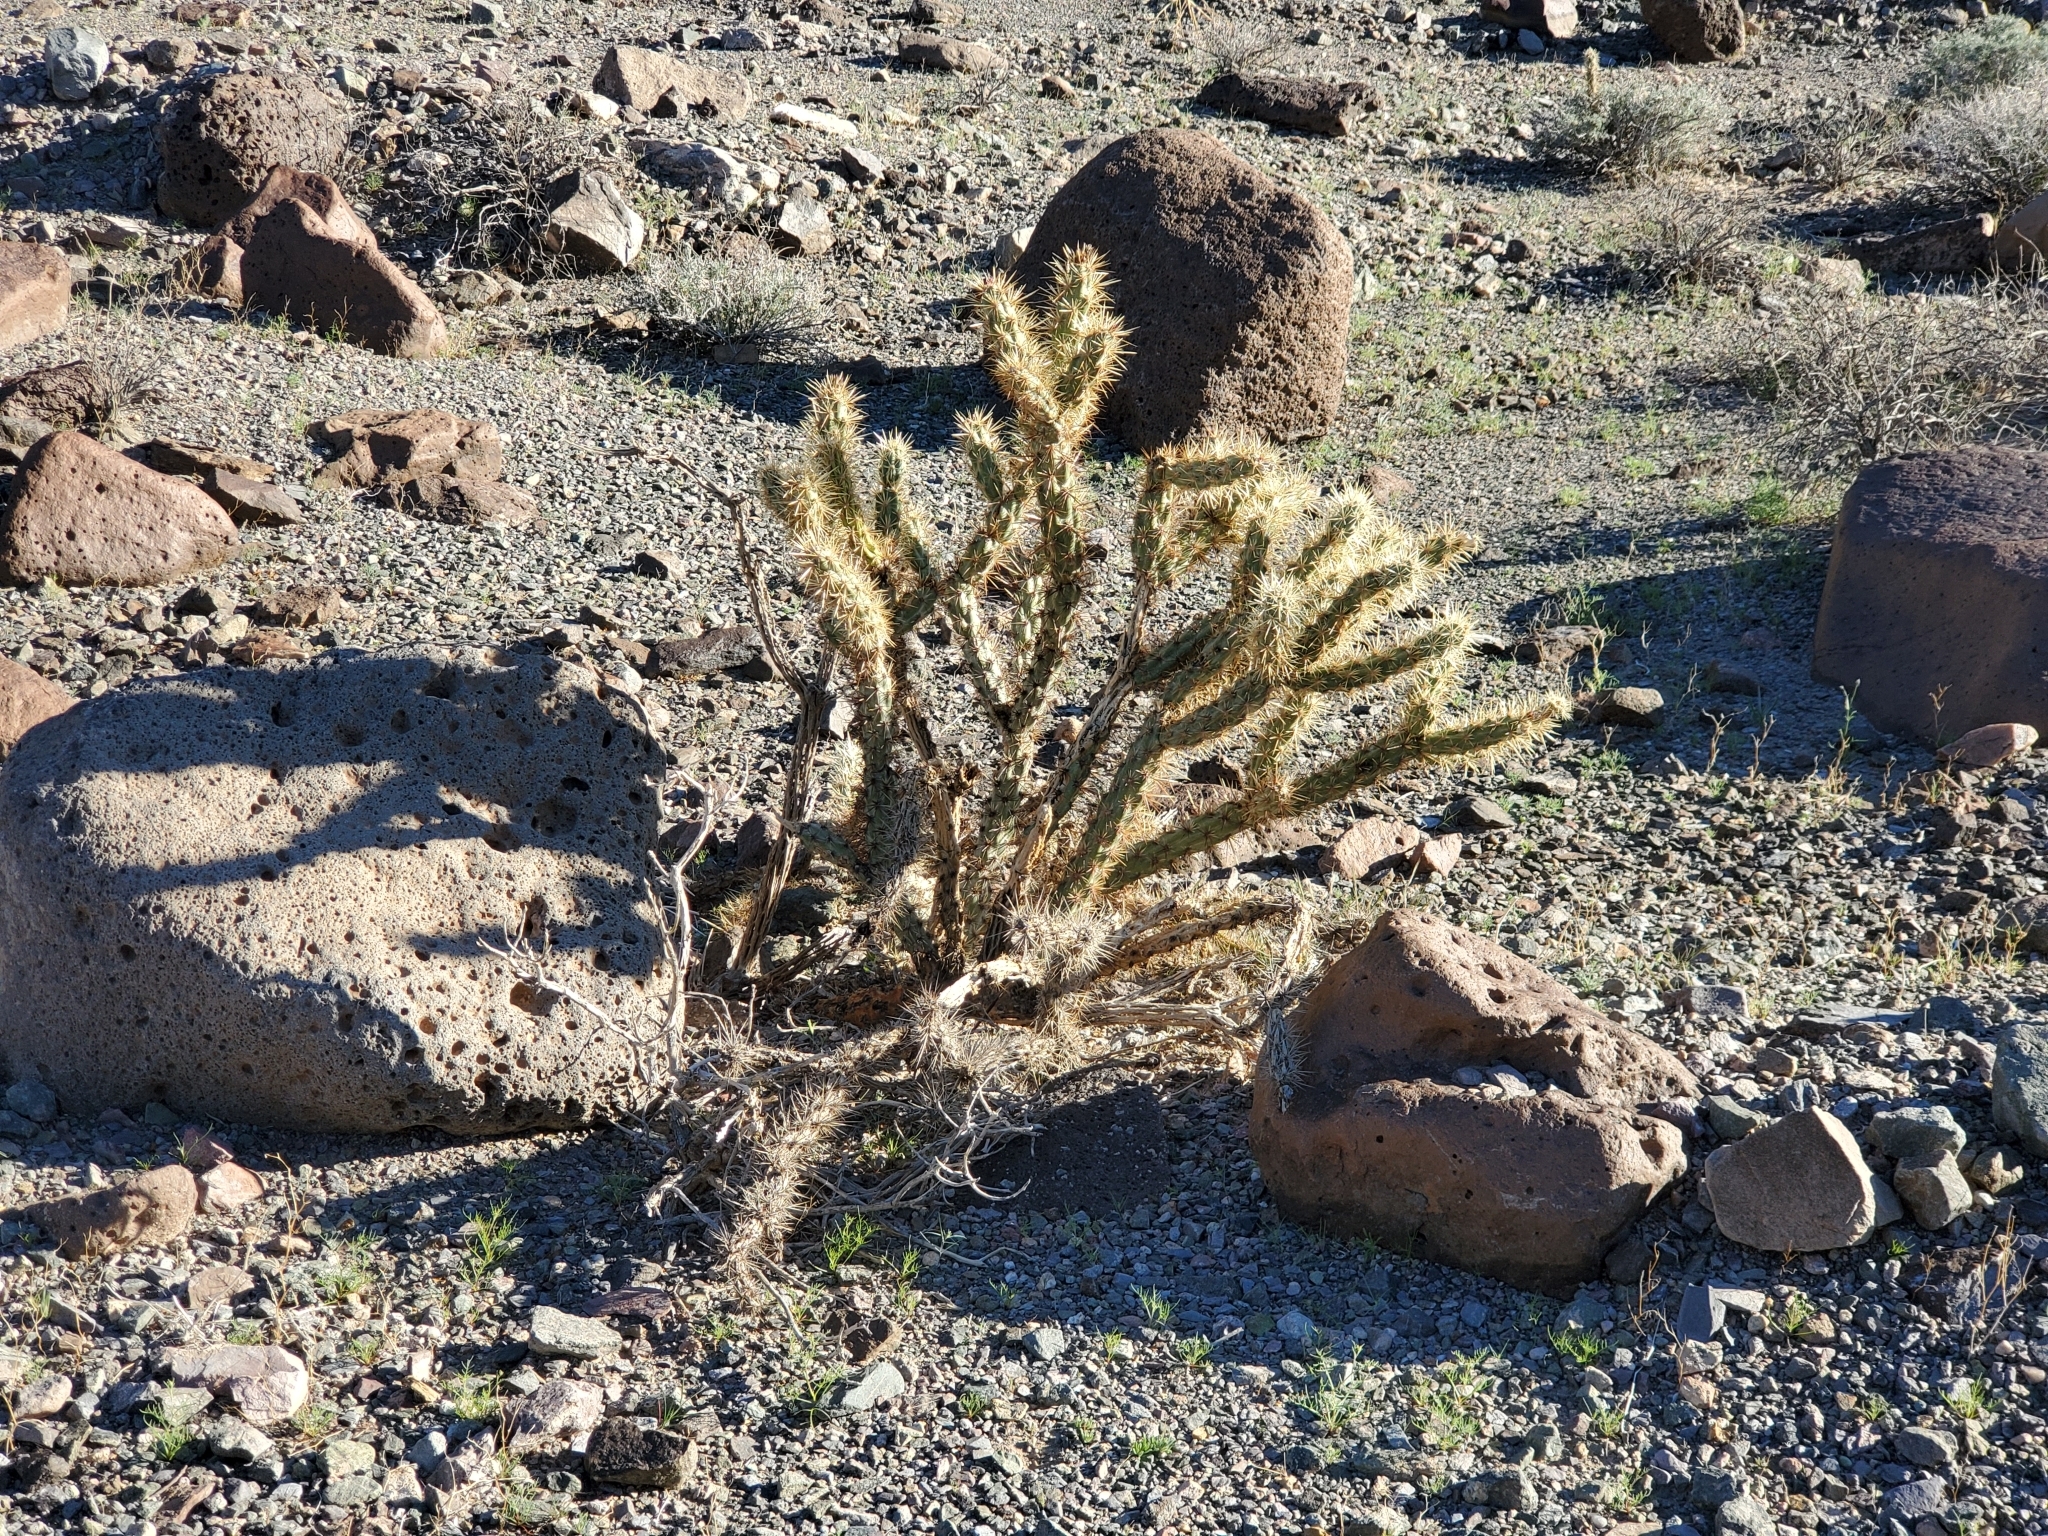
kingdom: Plantae
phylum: Tracheophyta
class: Magnoliopsida
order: Caryophyllales
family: Cactaceae
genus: Cylindropuntia
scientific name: Cylindropuntia acanthocarpa
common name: Buckhorn cholla
